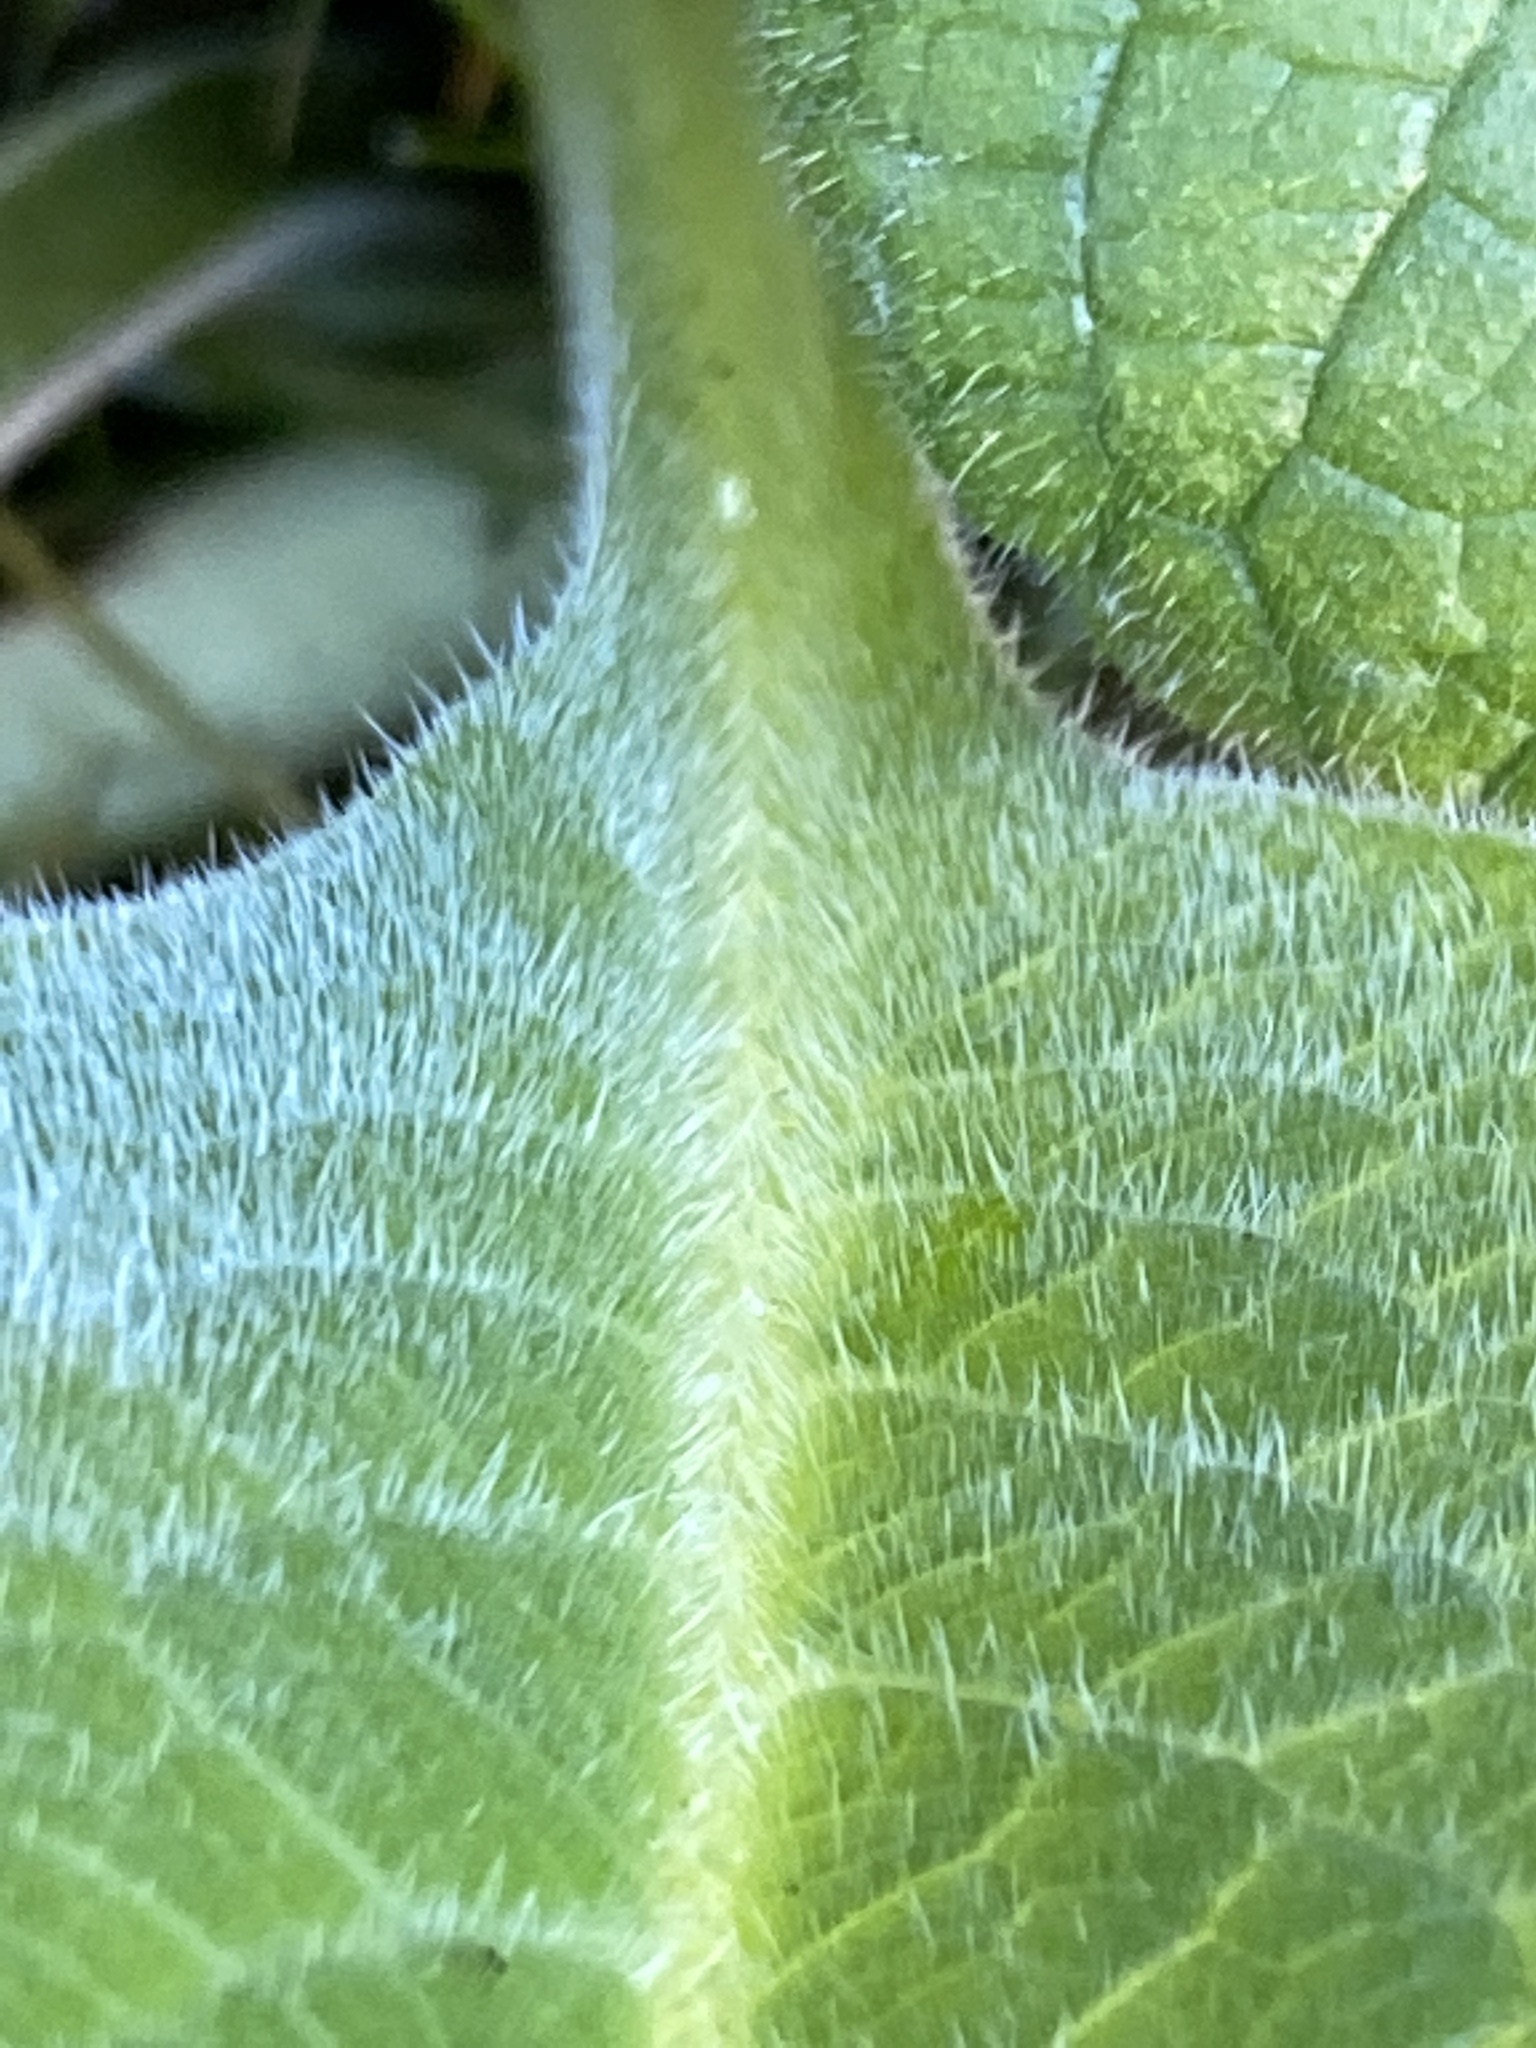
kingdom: Plantae
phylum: Tracheophyta
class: Magnoliopsida
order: Boraginales
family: Boraginaceae
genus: Symphytum
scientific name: Symphytum officinale
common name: Common comfrey
